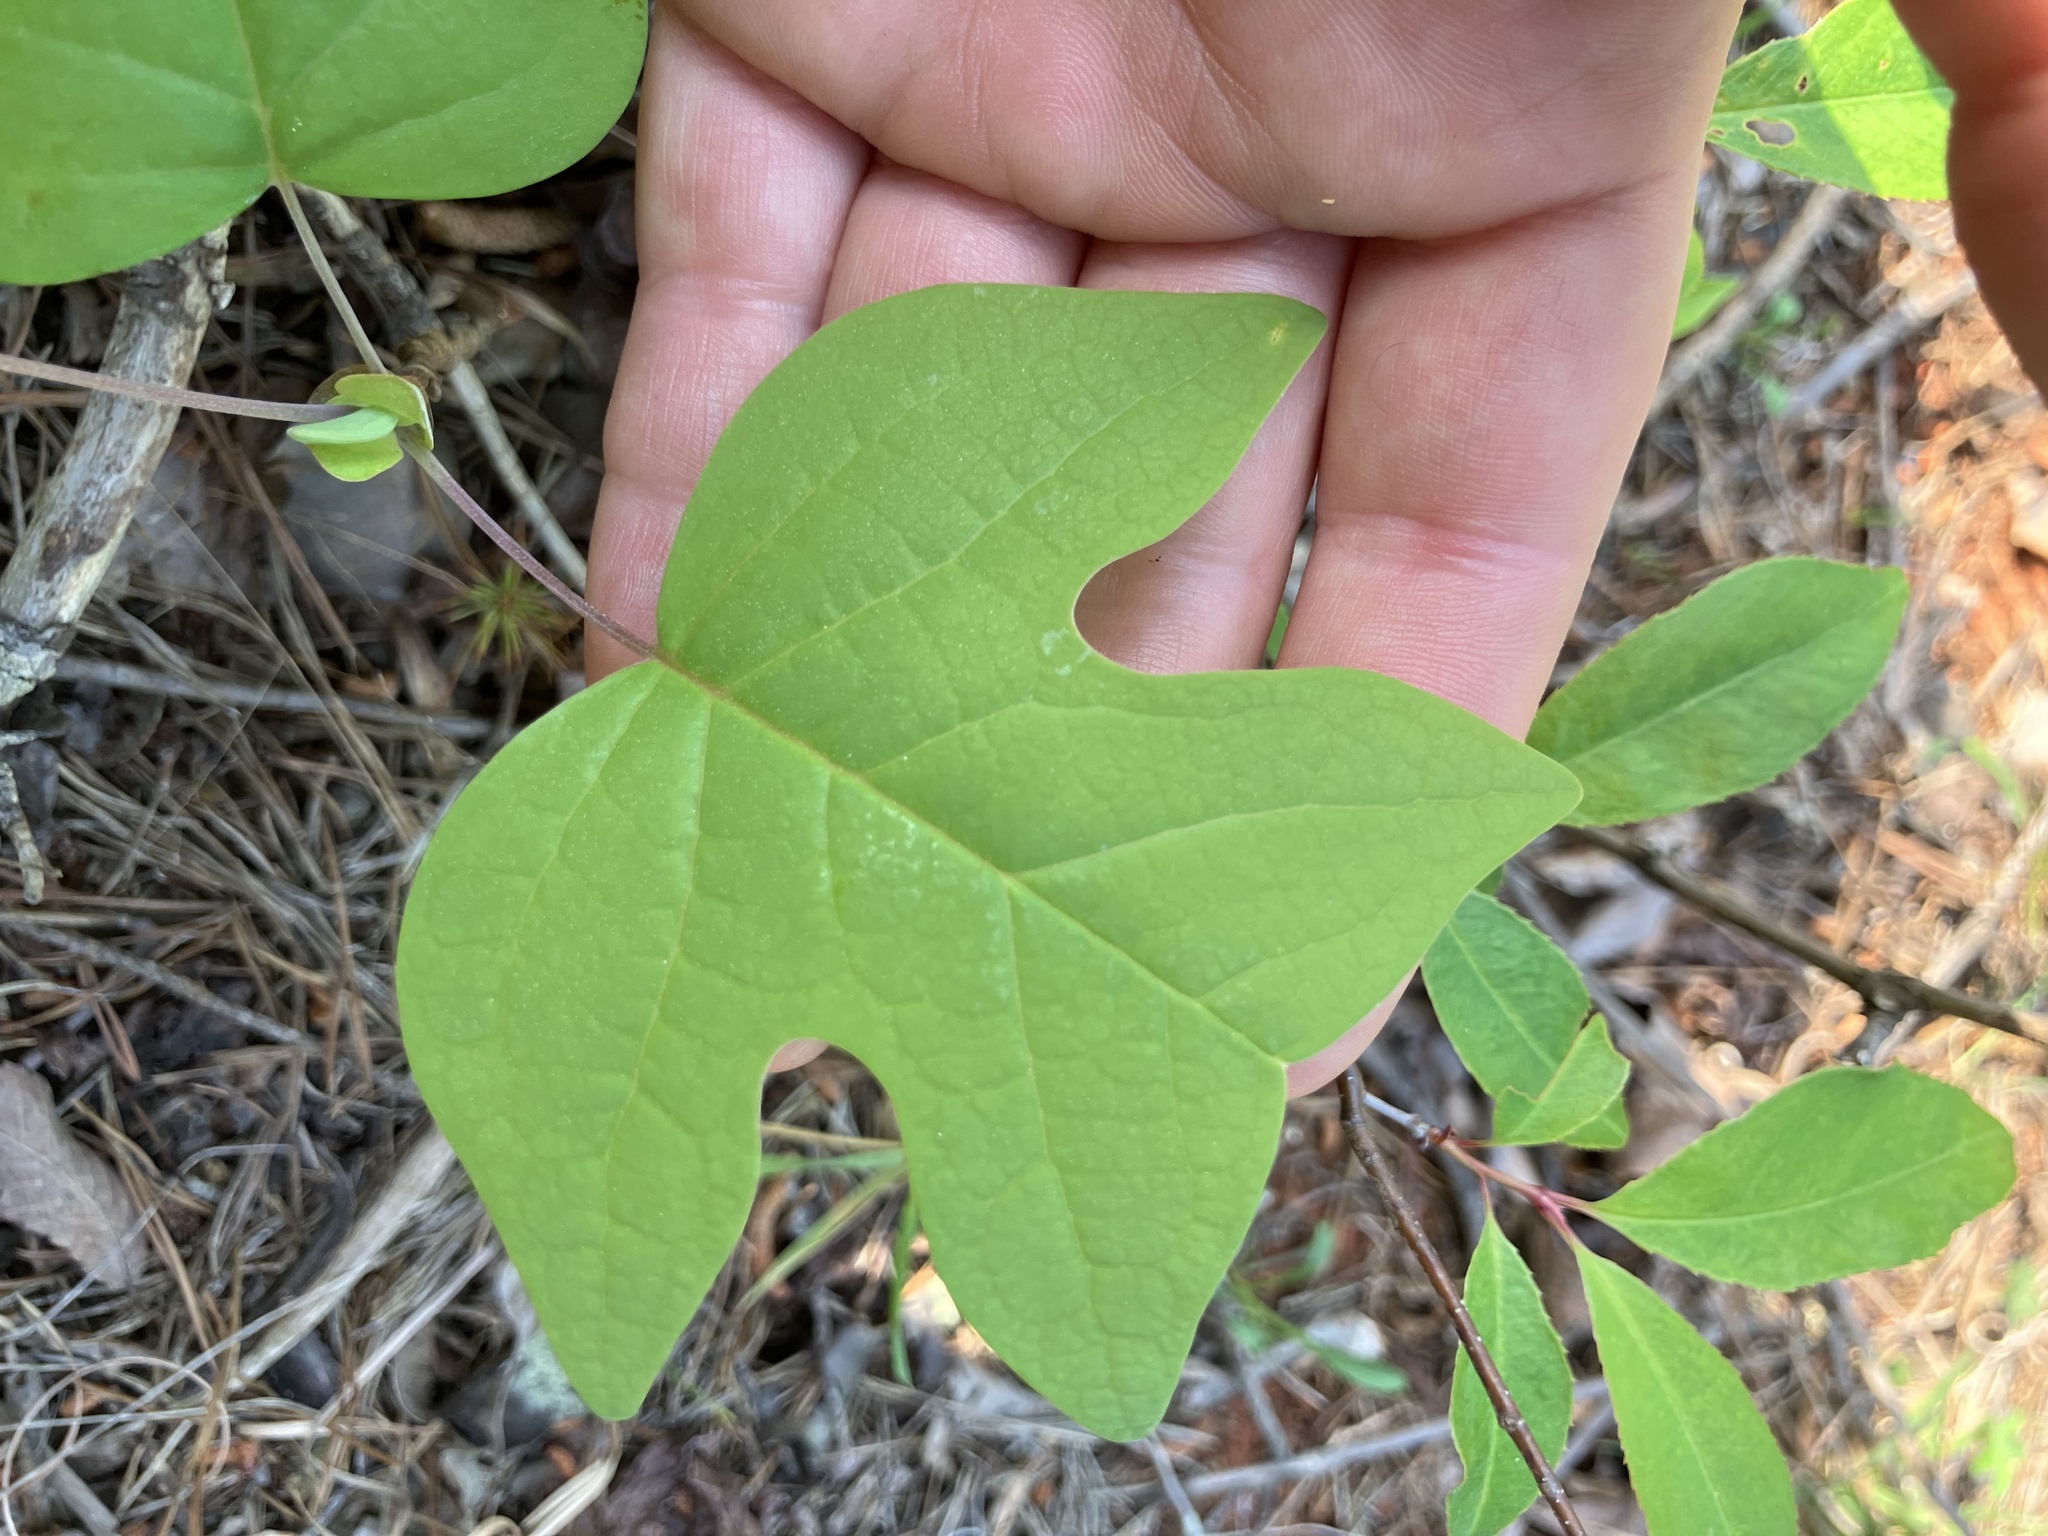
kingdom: Plantae
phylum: Tracheophyta
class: Magnoliopsida
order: Magnoliales
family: Magnoliaceae
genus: Liriodendron
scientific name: Liriodendron tulipifera
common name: Tulip tree
